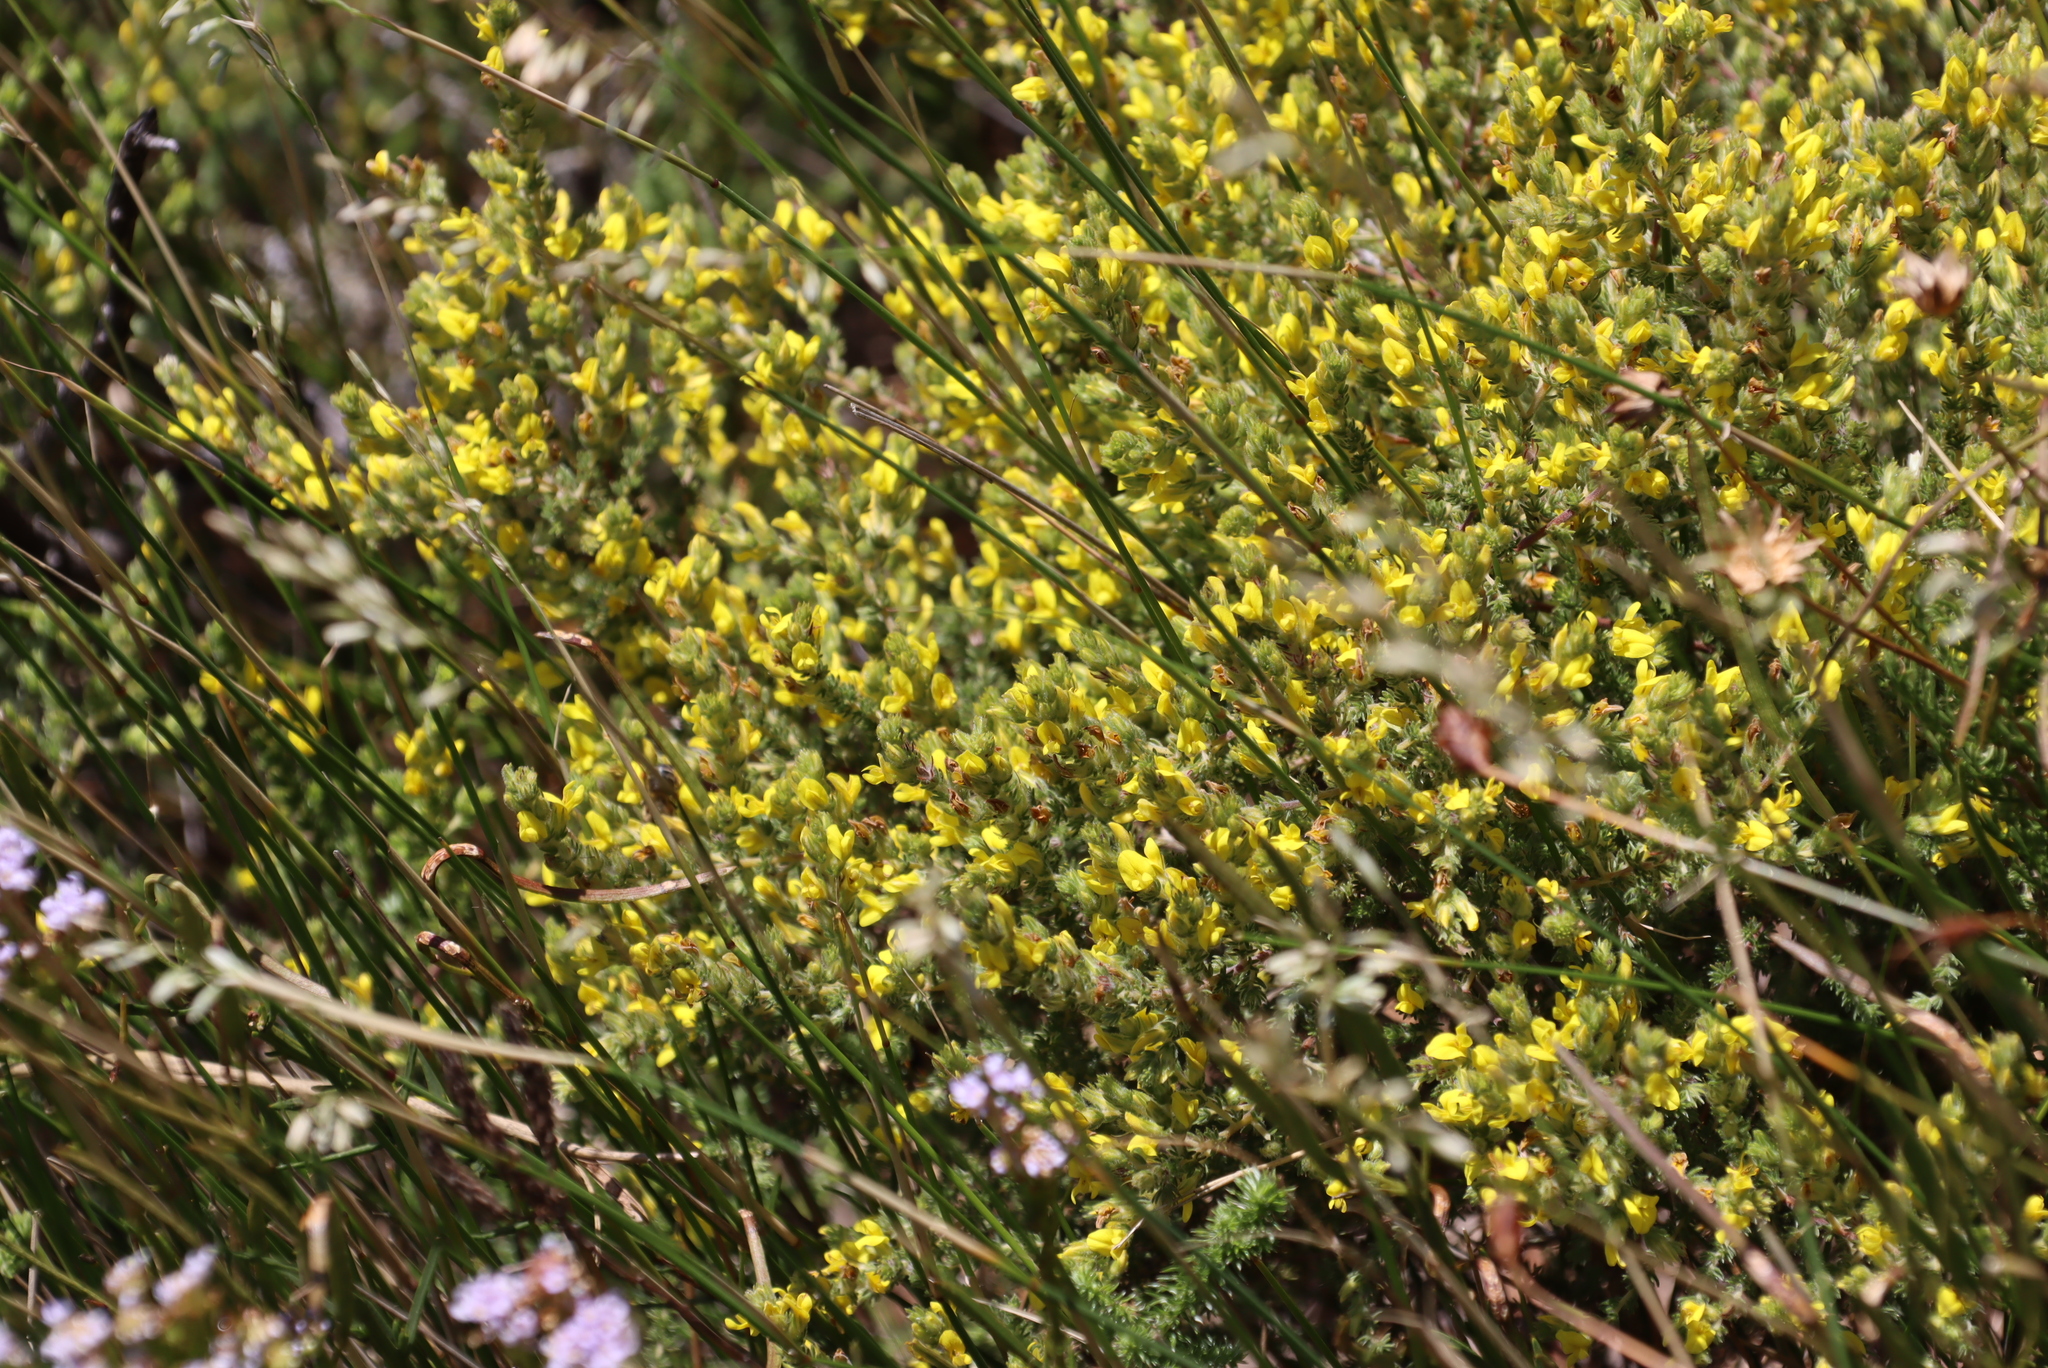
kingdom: Plantae
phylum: Tracheophyta
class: Magnoliopsida
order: Fabales
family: Fabaceae
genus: Aspalathus
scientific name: Aspalathus ericifolia
